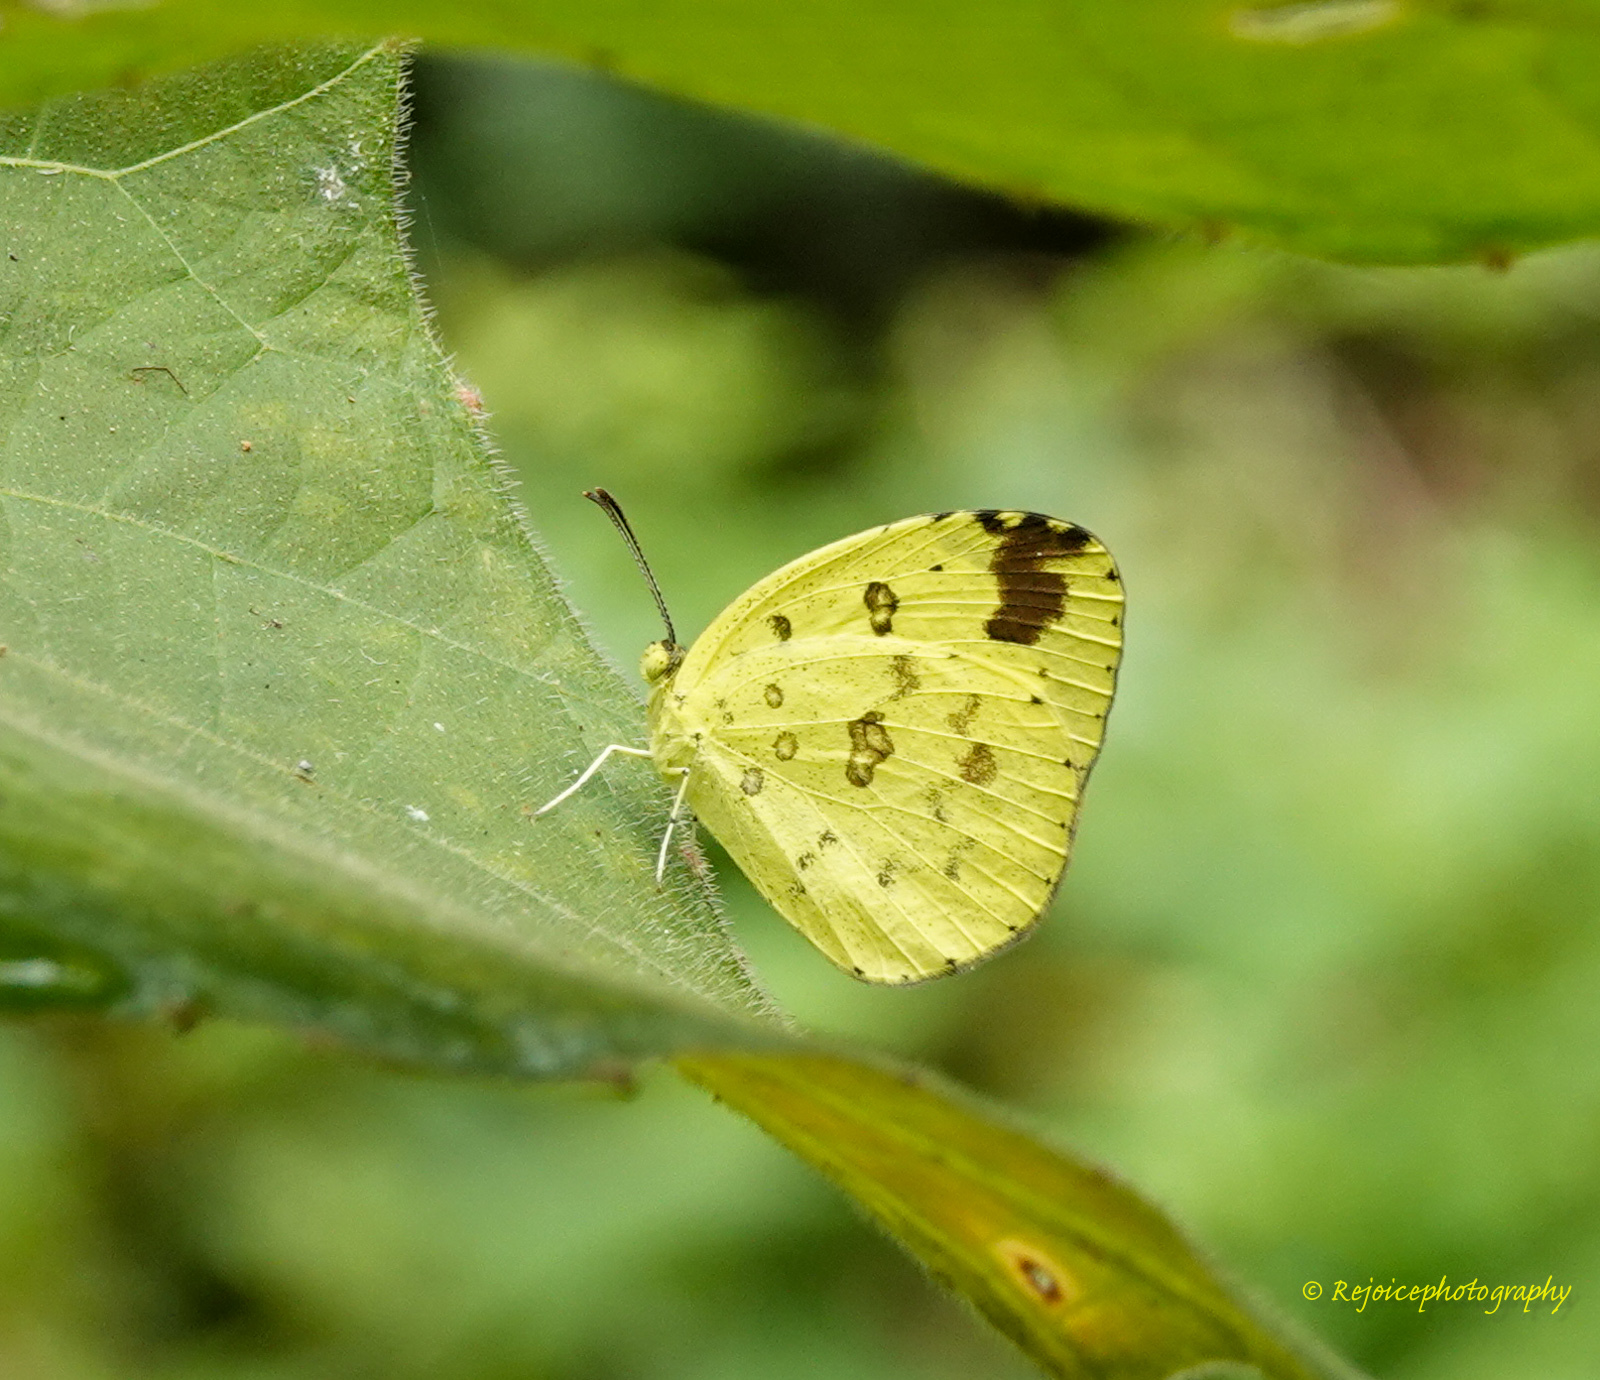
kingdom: Animalia
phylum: Arthropoda
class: Insecta
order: Lepidoptera
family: Pieridae
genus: Eurema
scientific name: Eurema hecabe
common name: Pale grass yellow
